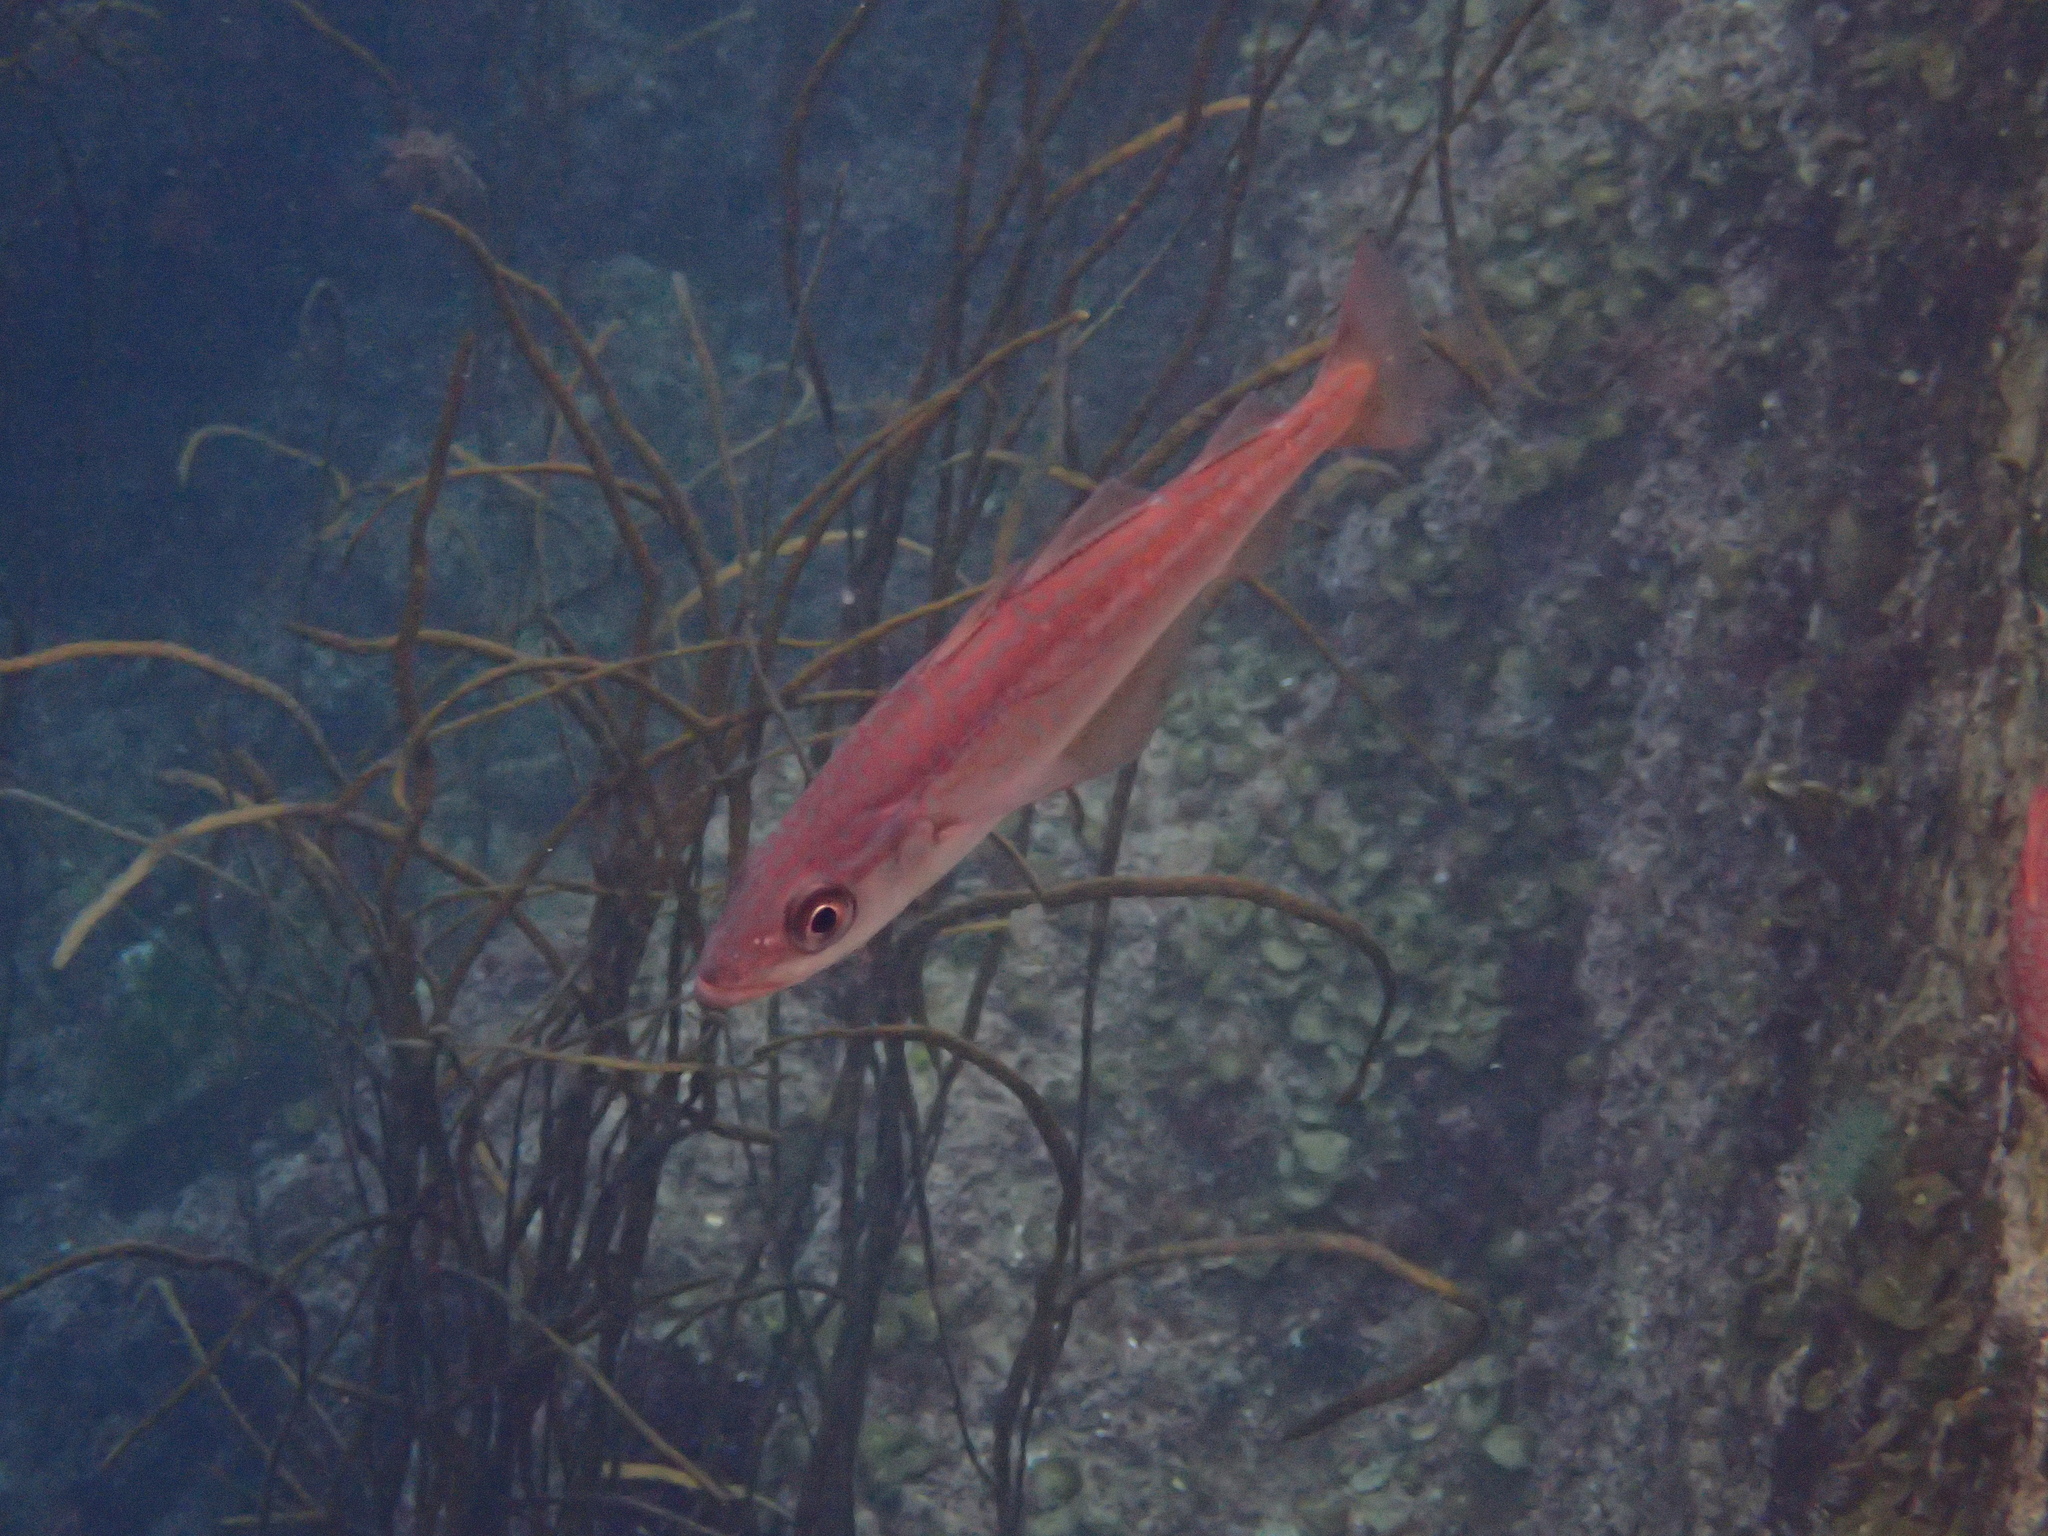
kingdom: Animalia
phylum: Chordata
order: Gadiformes
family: Gadidae
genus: Pollachius
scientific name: Pollachius pollachius
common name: Pollack
